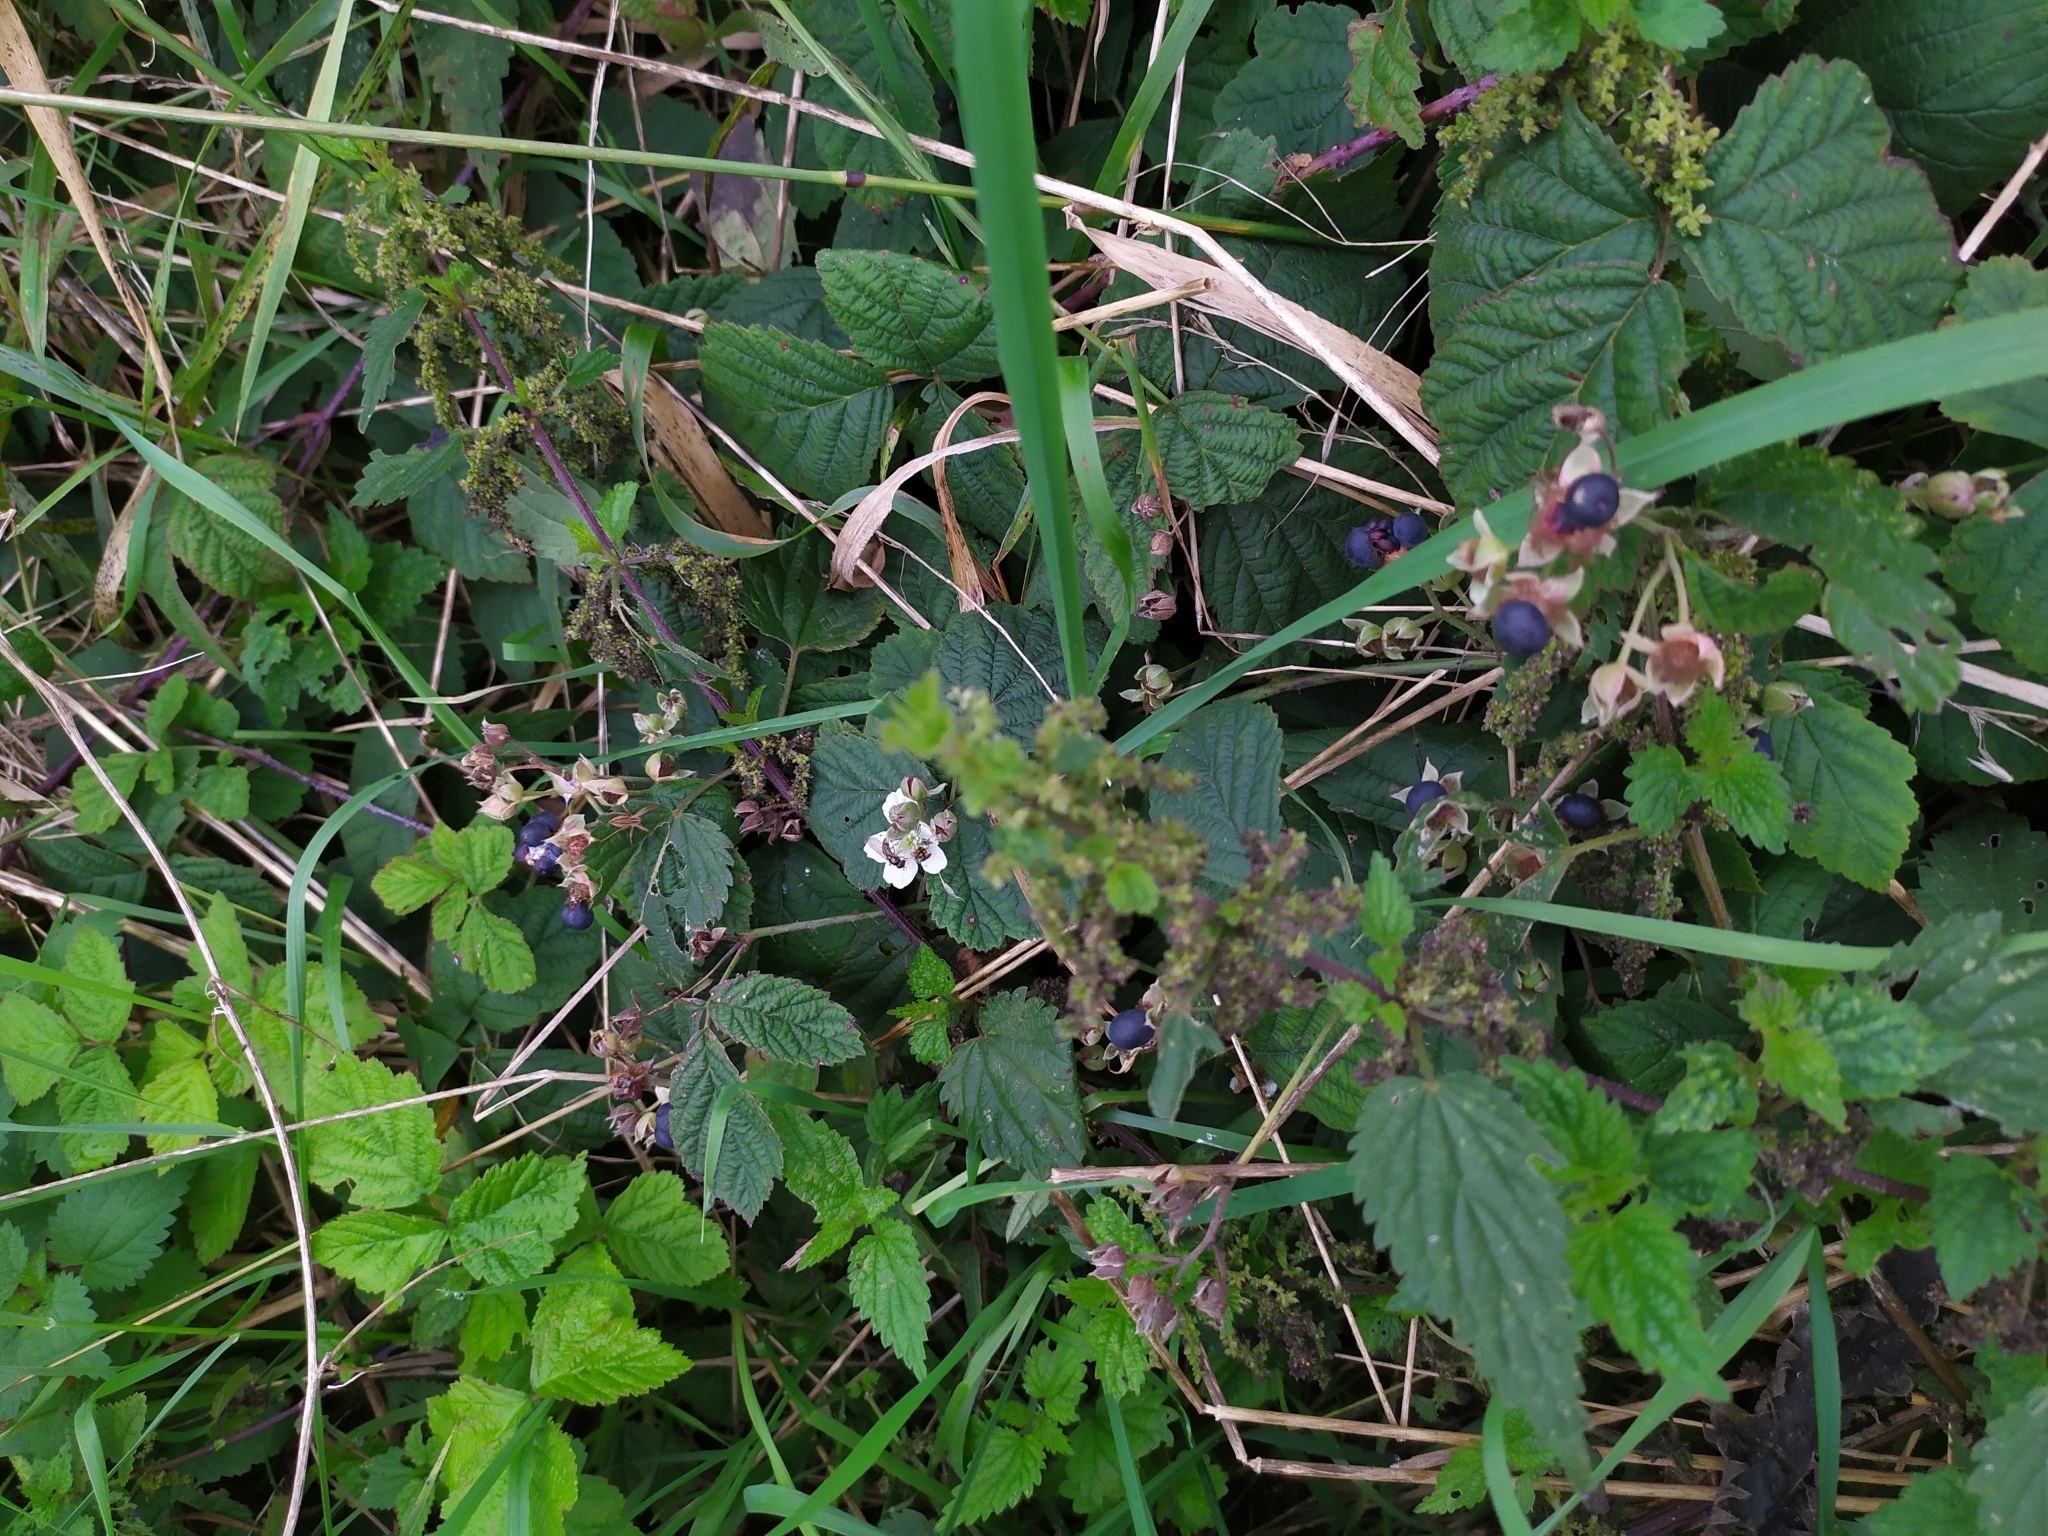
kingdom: Plantae
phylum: Tracheophyta
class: Magnoliopsida
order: Rosales
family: Rosaceae
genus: Rubus
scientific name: Rubus caesius
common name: Dewberry
